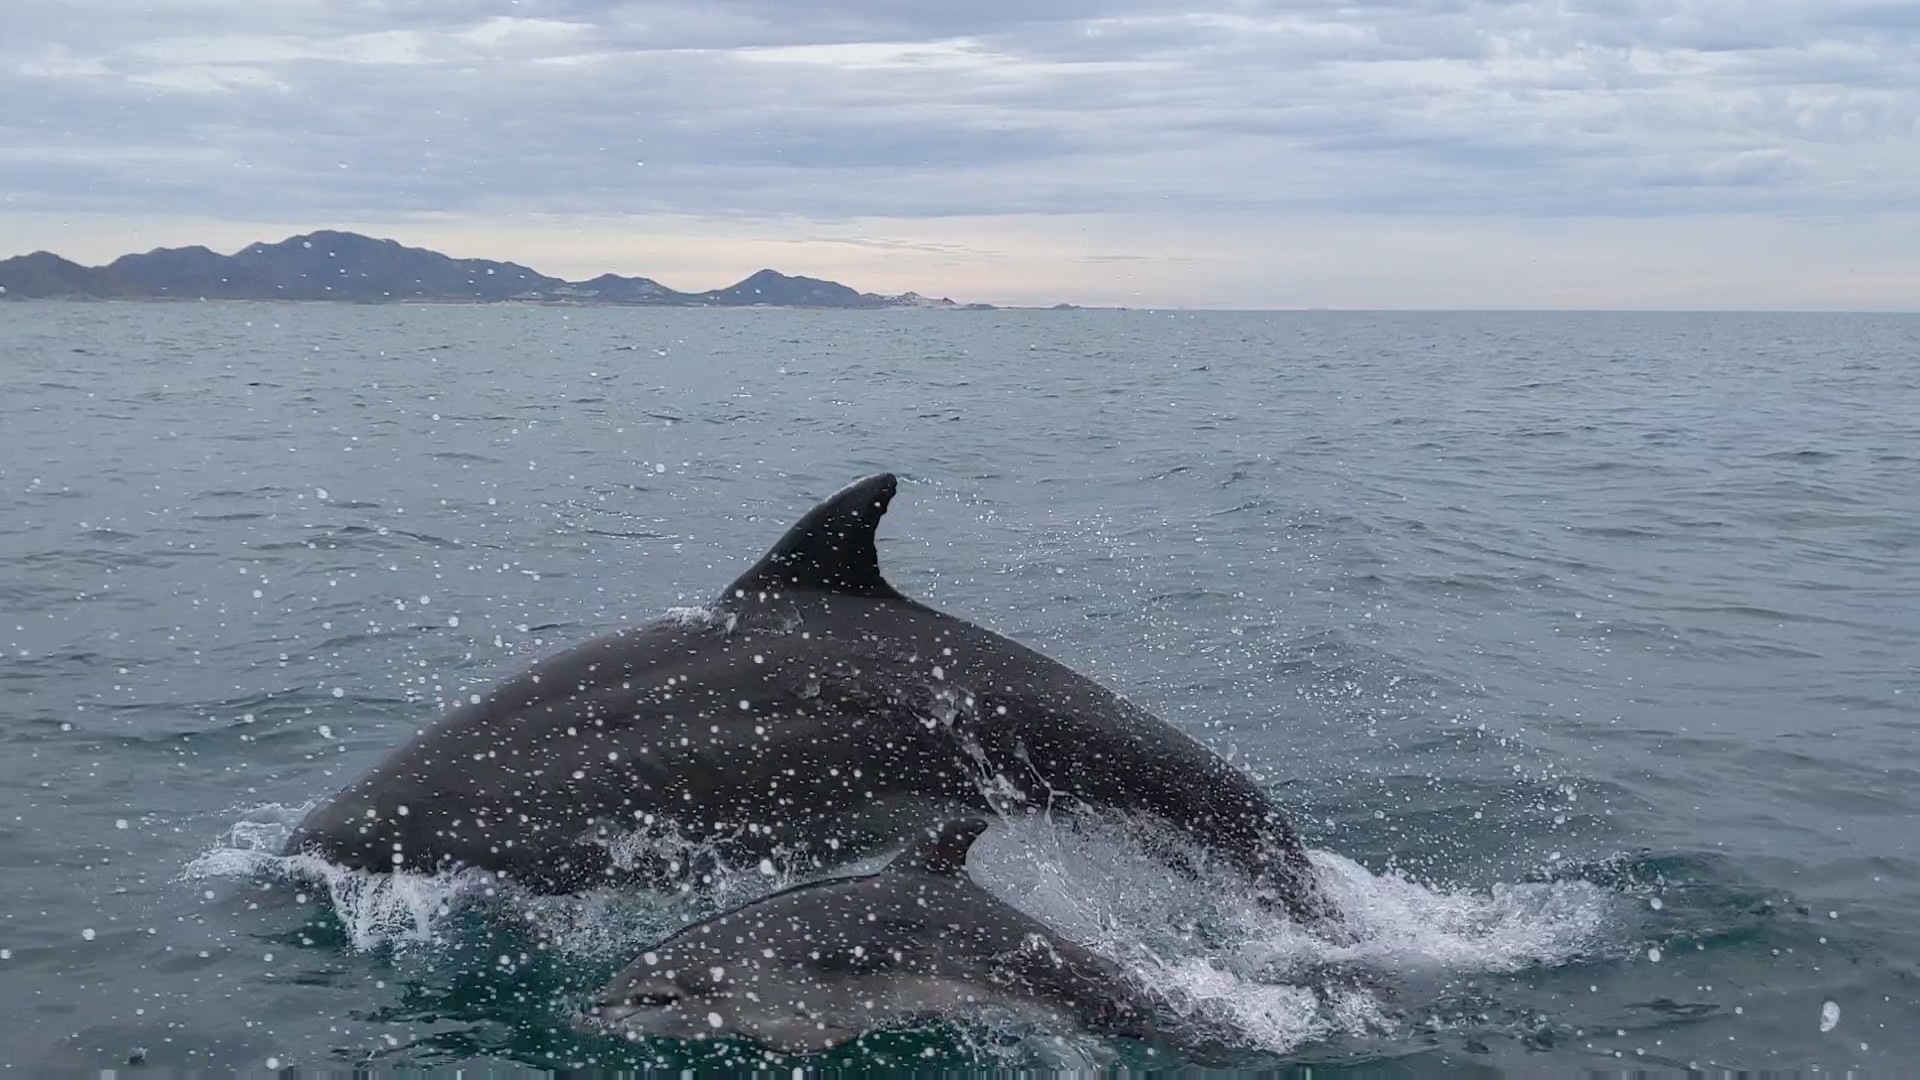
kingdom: Animalia
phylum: Chordata
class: Mammalia
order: Cetacea
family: Delphinidae
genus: Tursiops
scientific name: Tursiops truncatus
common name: Bottlenose dolphin
